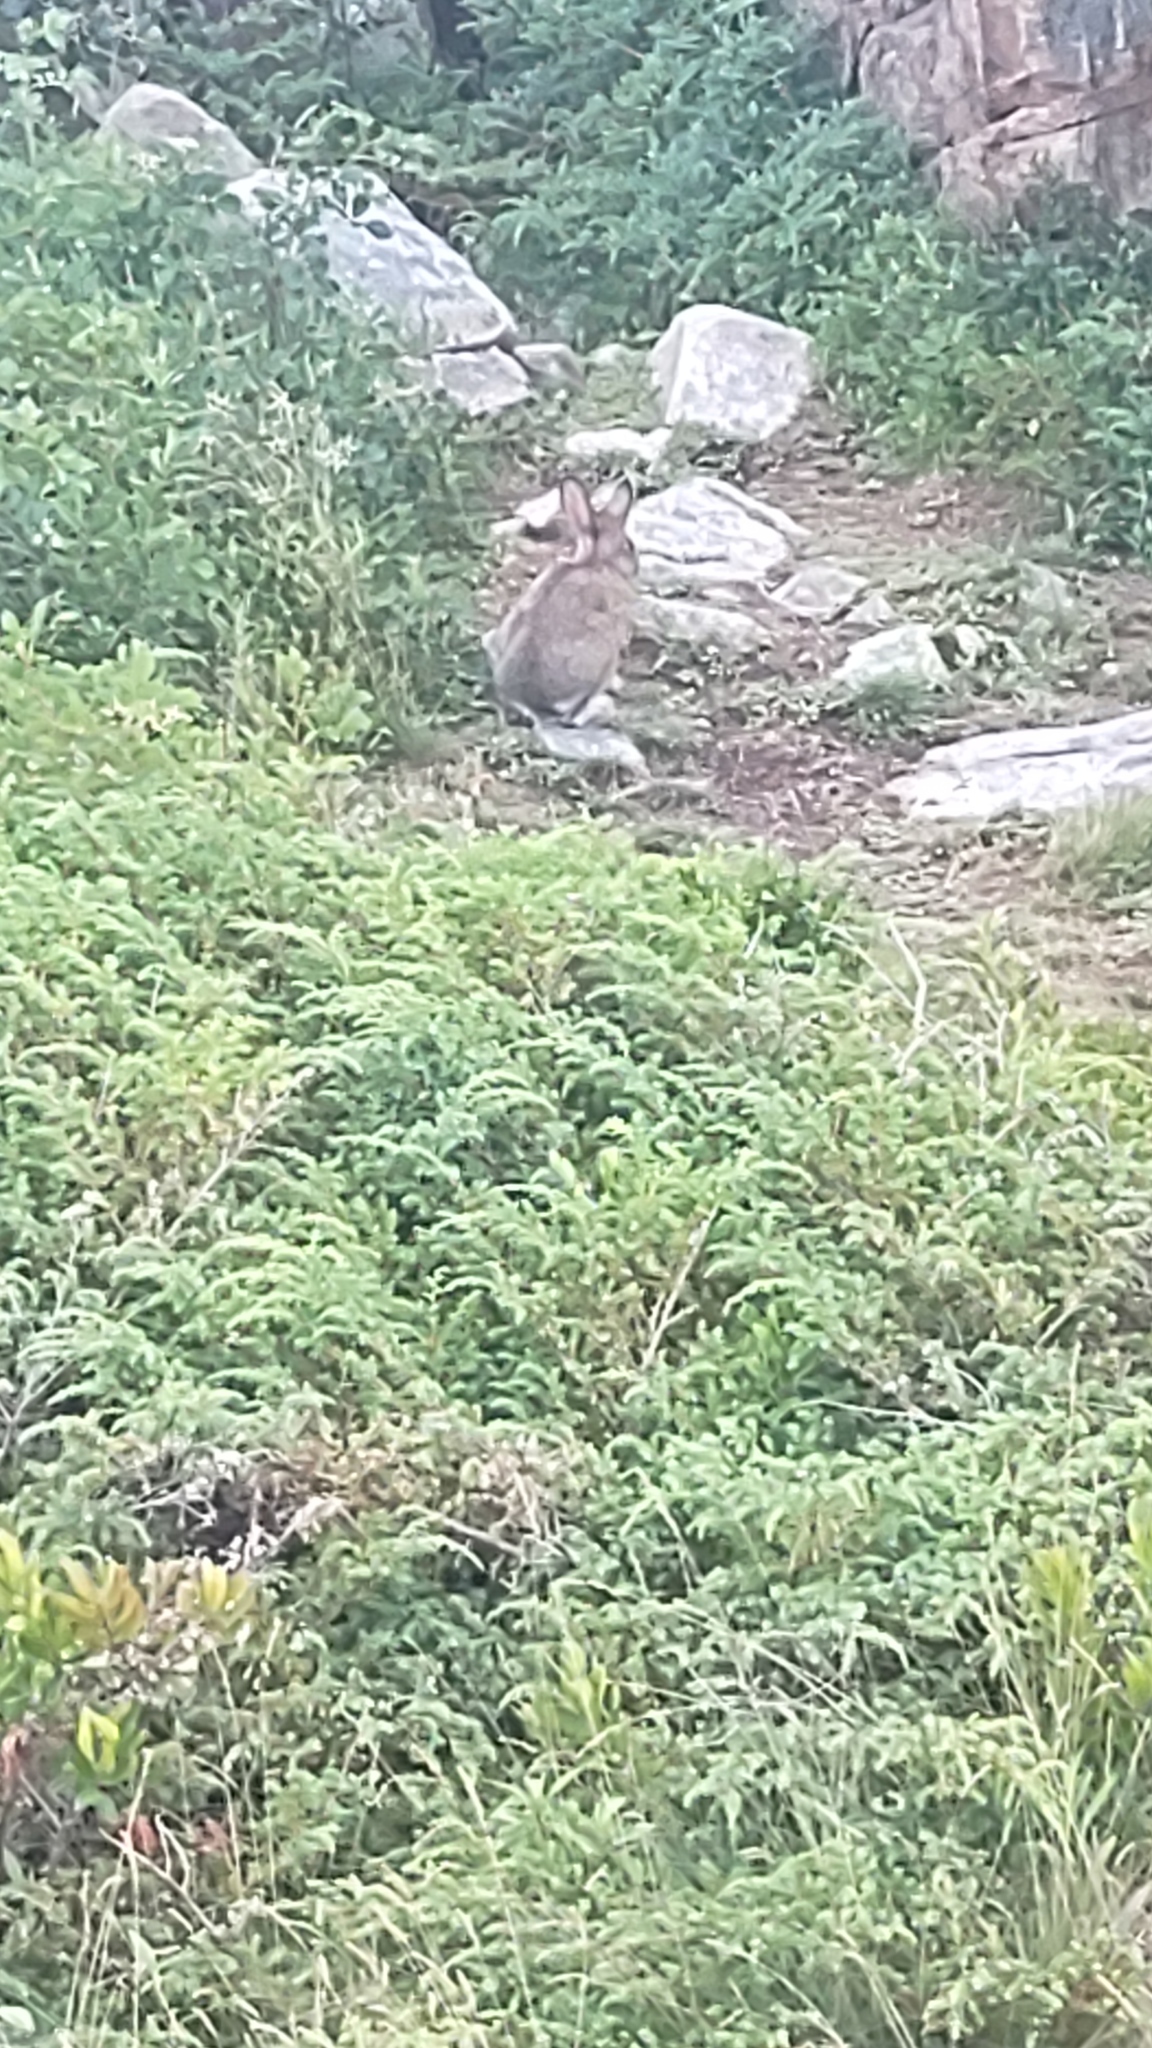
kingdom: Animalia
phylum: Chordata
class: Mammalia
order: Lagomorpha
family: Leporidae
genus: Lepus
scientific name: Lepus americanus
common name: Snowshoe hare
